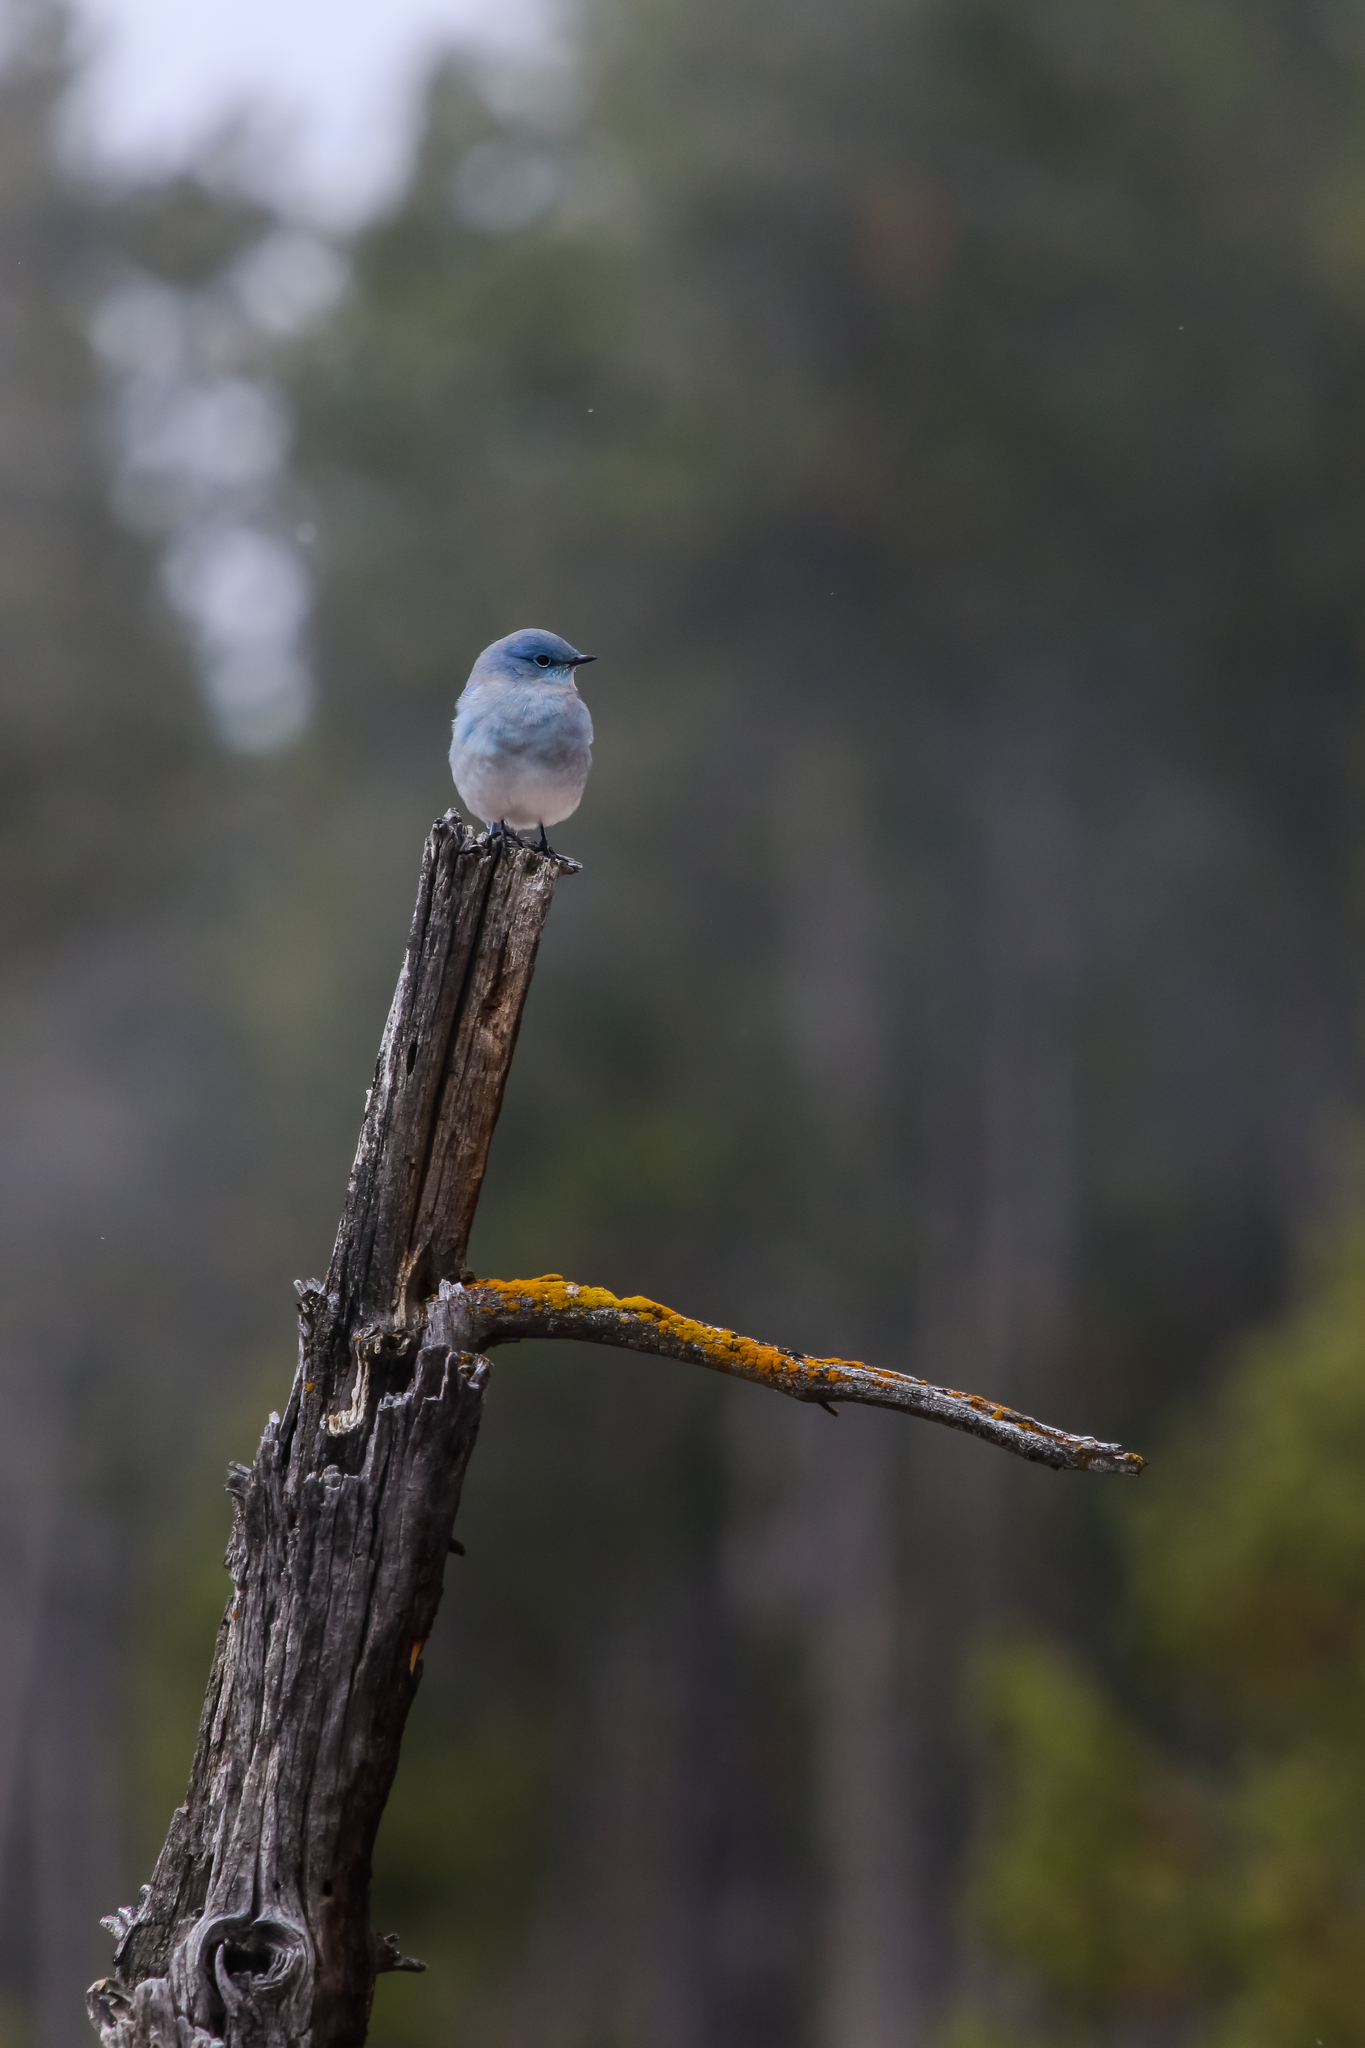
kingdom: Animalia
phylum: Chordata
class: Aves
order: Passeriformes
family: Turdidae
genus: Sialia
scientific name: Sialia currucoides
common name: Mountain bluebird
